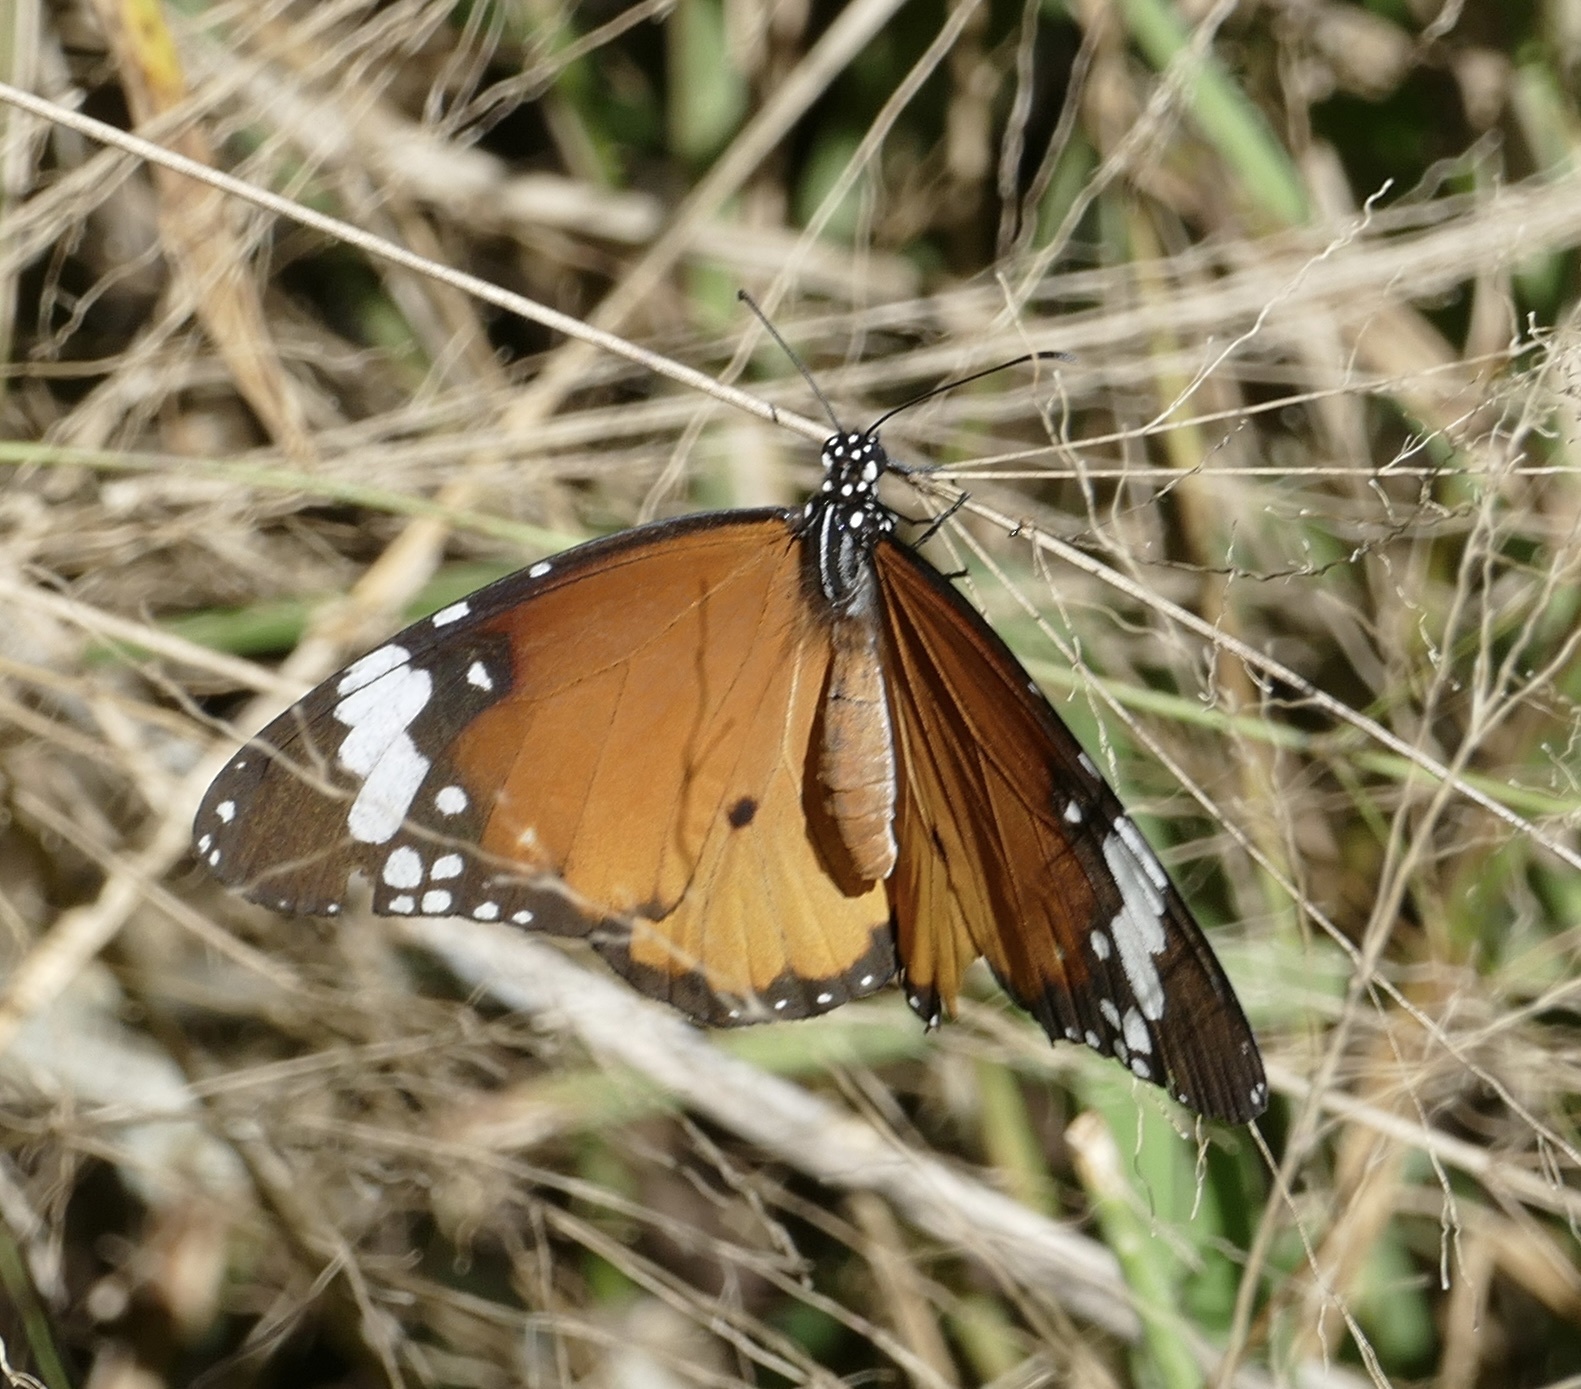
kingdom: Animalia
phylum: Arthropoda
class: Insecta
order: Lepidoptera
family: Nymphalidae
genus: Danaus
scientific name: Danaus chrysippus
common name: Plain tiger
